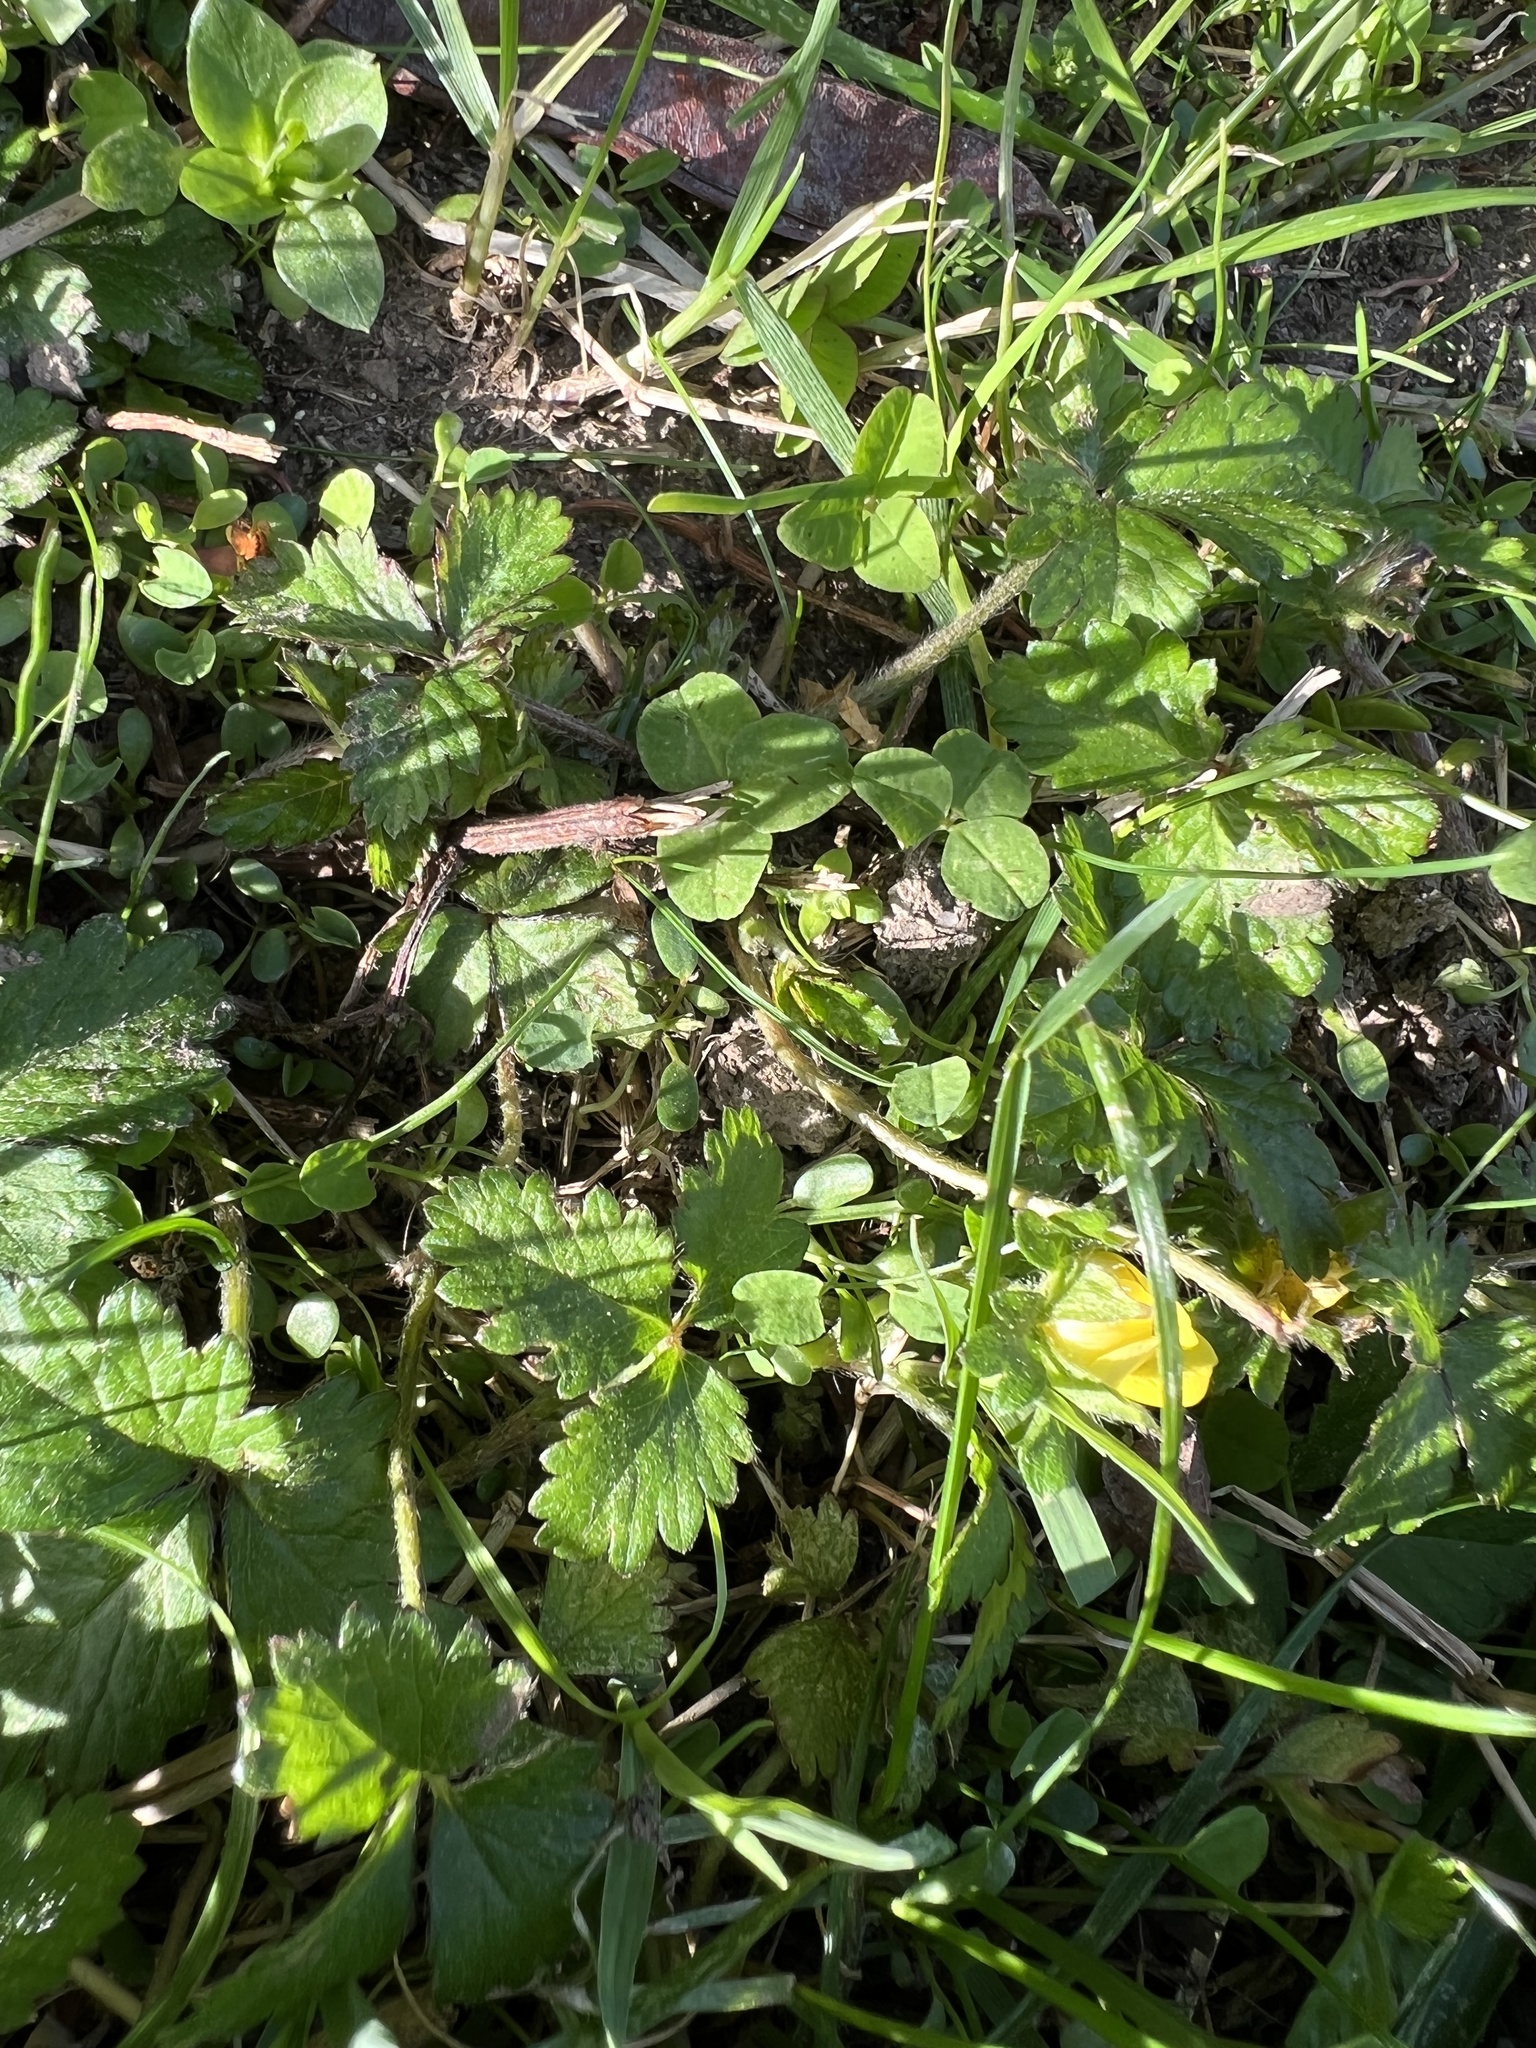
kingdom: Plantae
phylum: Tracheophyta
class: Magnoliopsida
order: Rosales
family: Rosaceae
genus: Potentilla
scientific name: Potentilla indica
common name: Yellow-flowered strawberry
